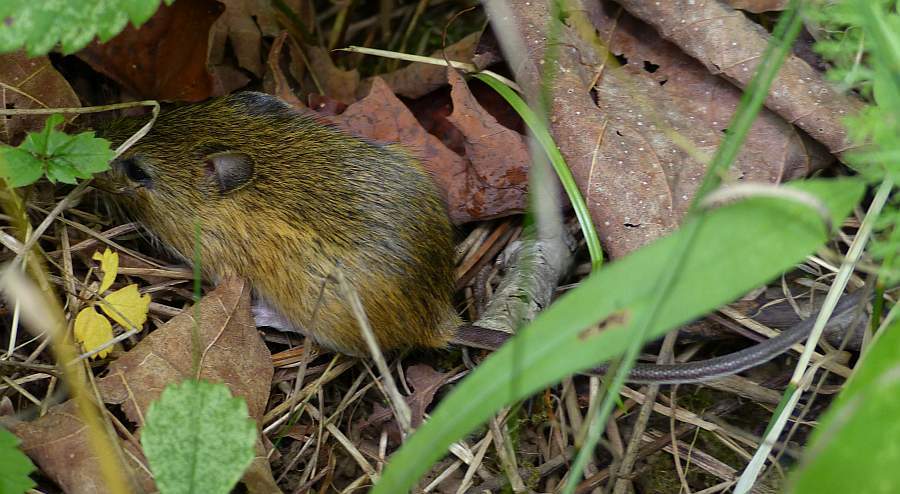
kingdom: Animalia
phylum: Chordata
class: Mammalia
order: Rodentia
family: Dipodidae
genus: Zapus
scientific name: Zapus hudsonius
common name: Meadow jumping mouse
